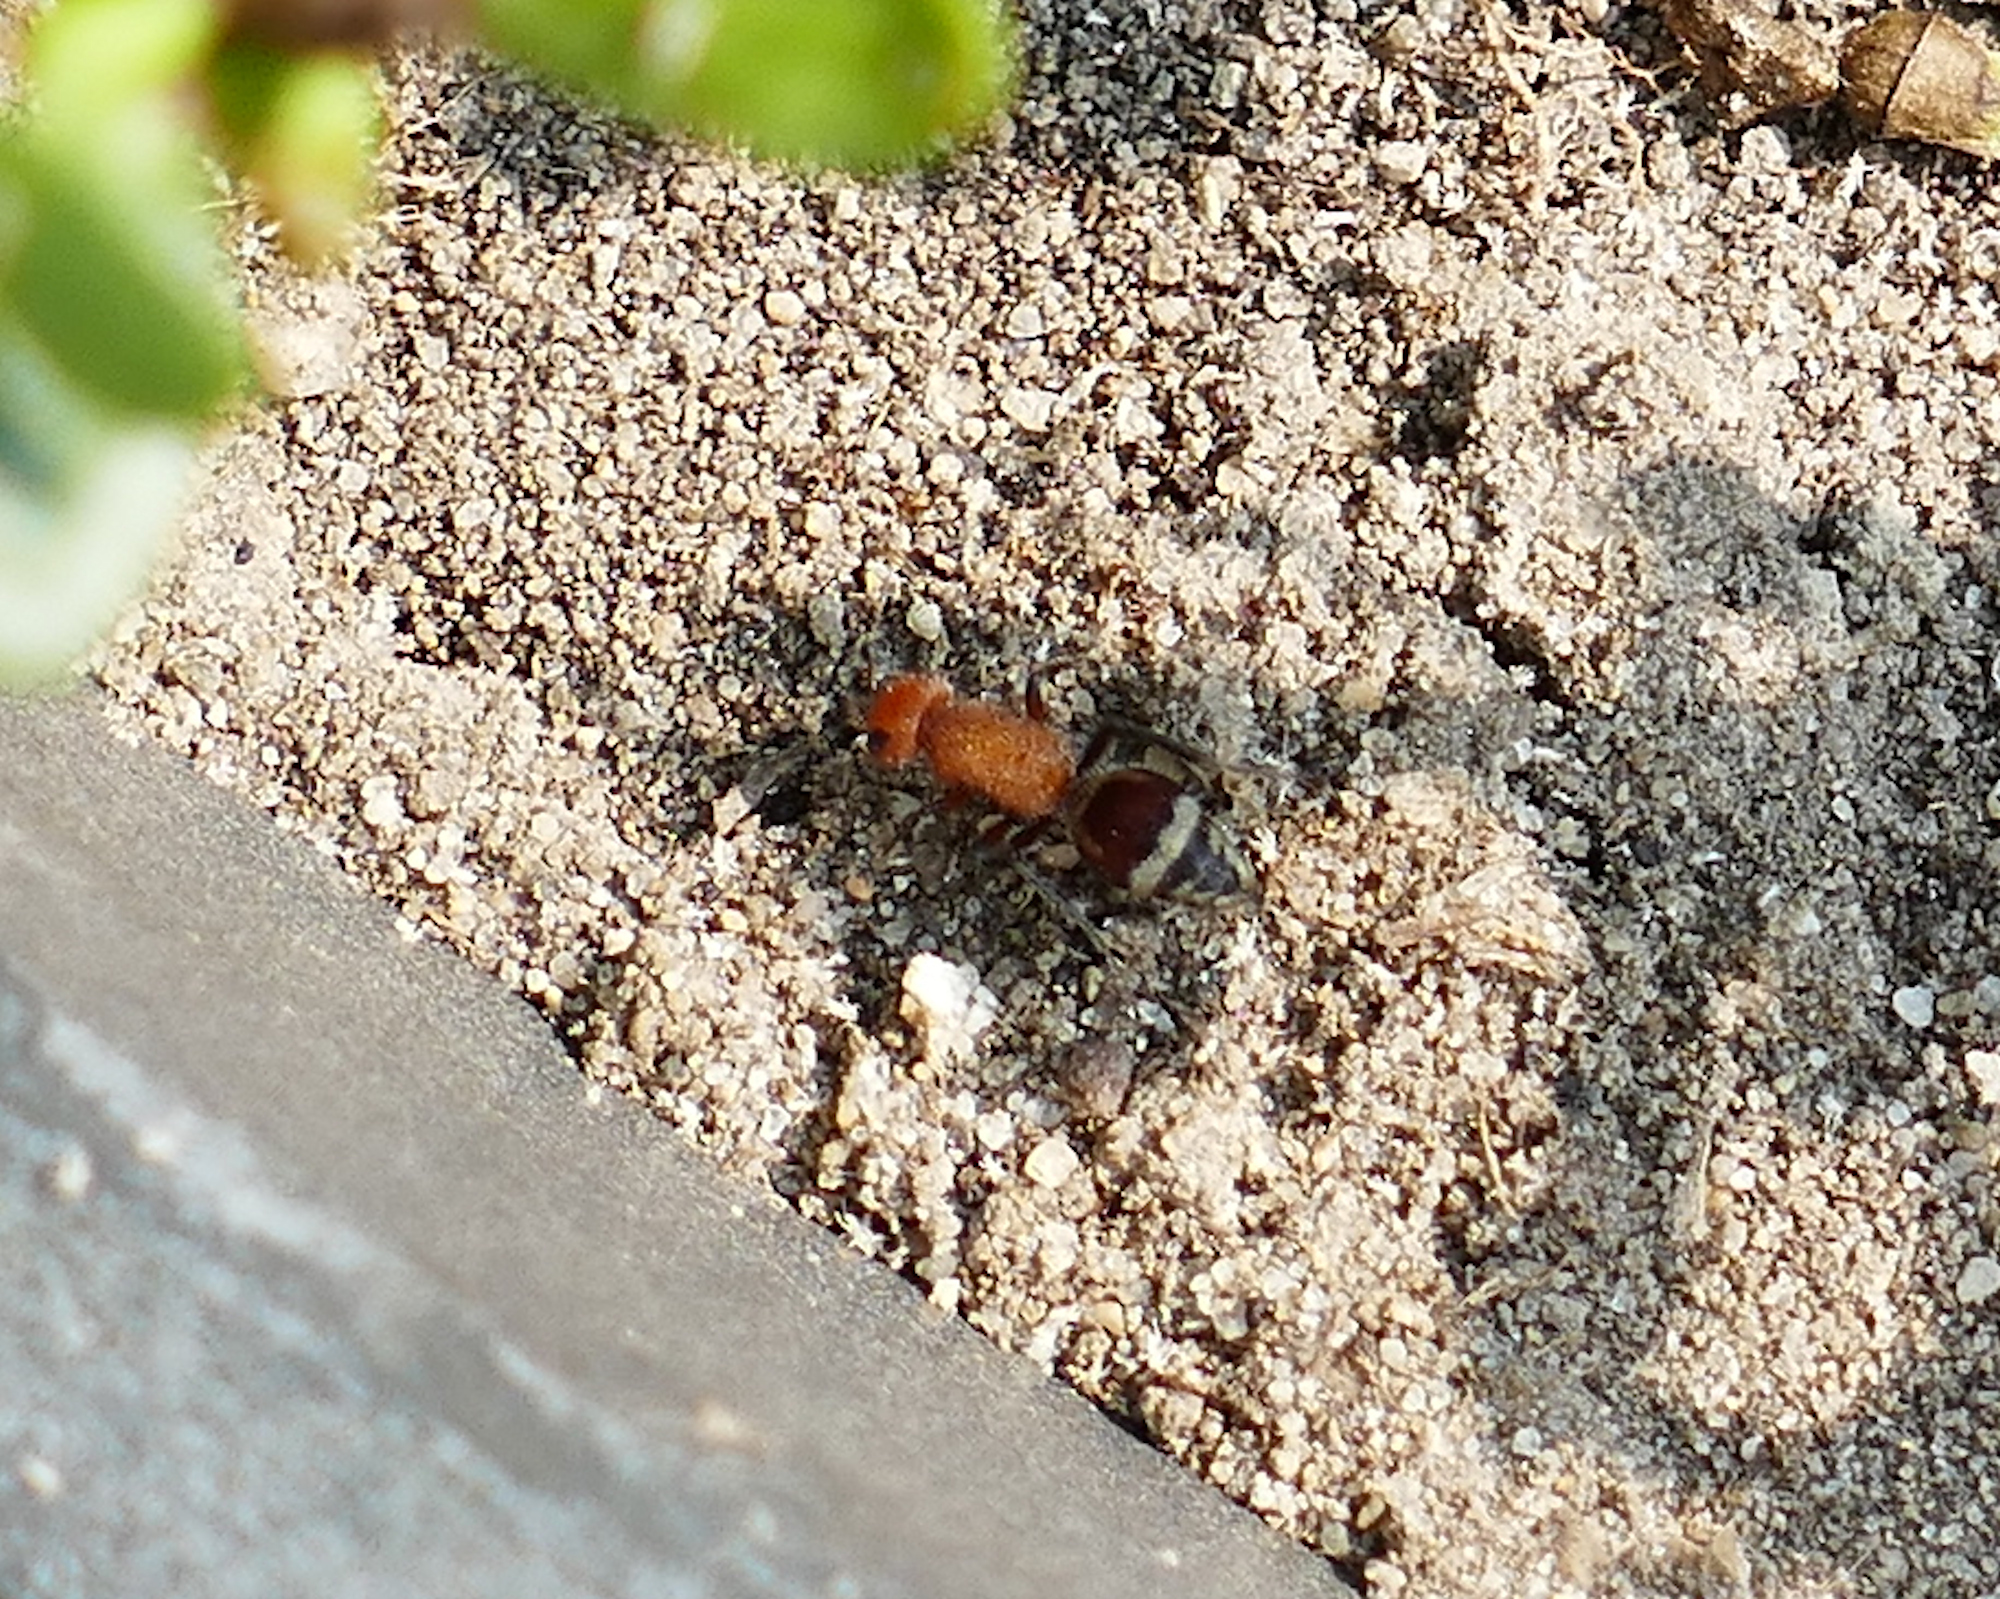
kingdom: Animalia
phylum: Arthropoda
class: Insecta
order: Hymenoptera
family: Mutillidae
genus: Timulla
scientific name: Timulla
